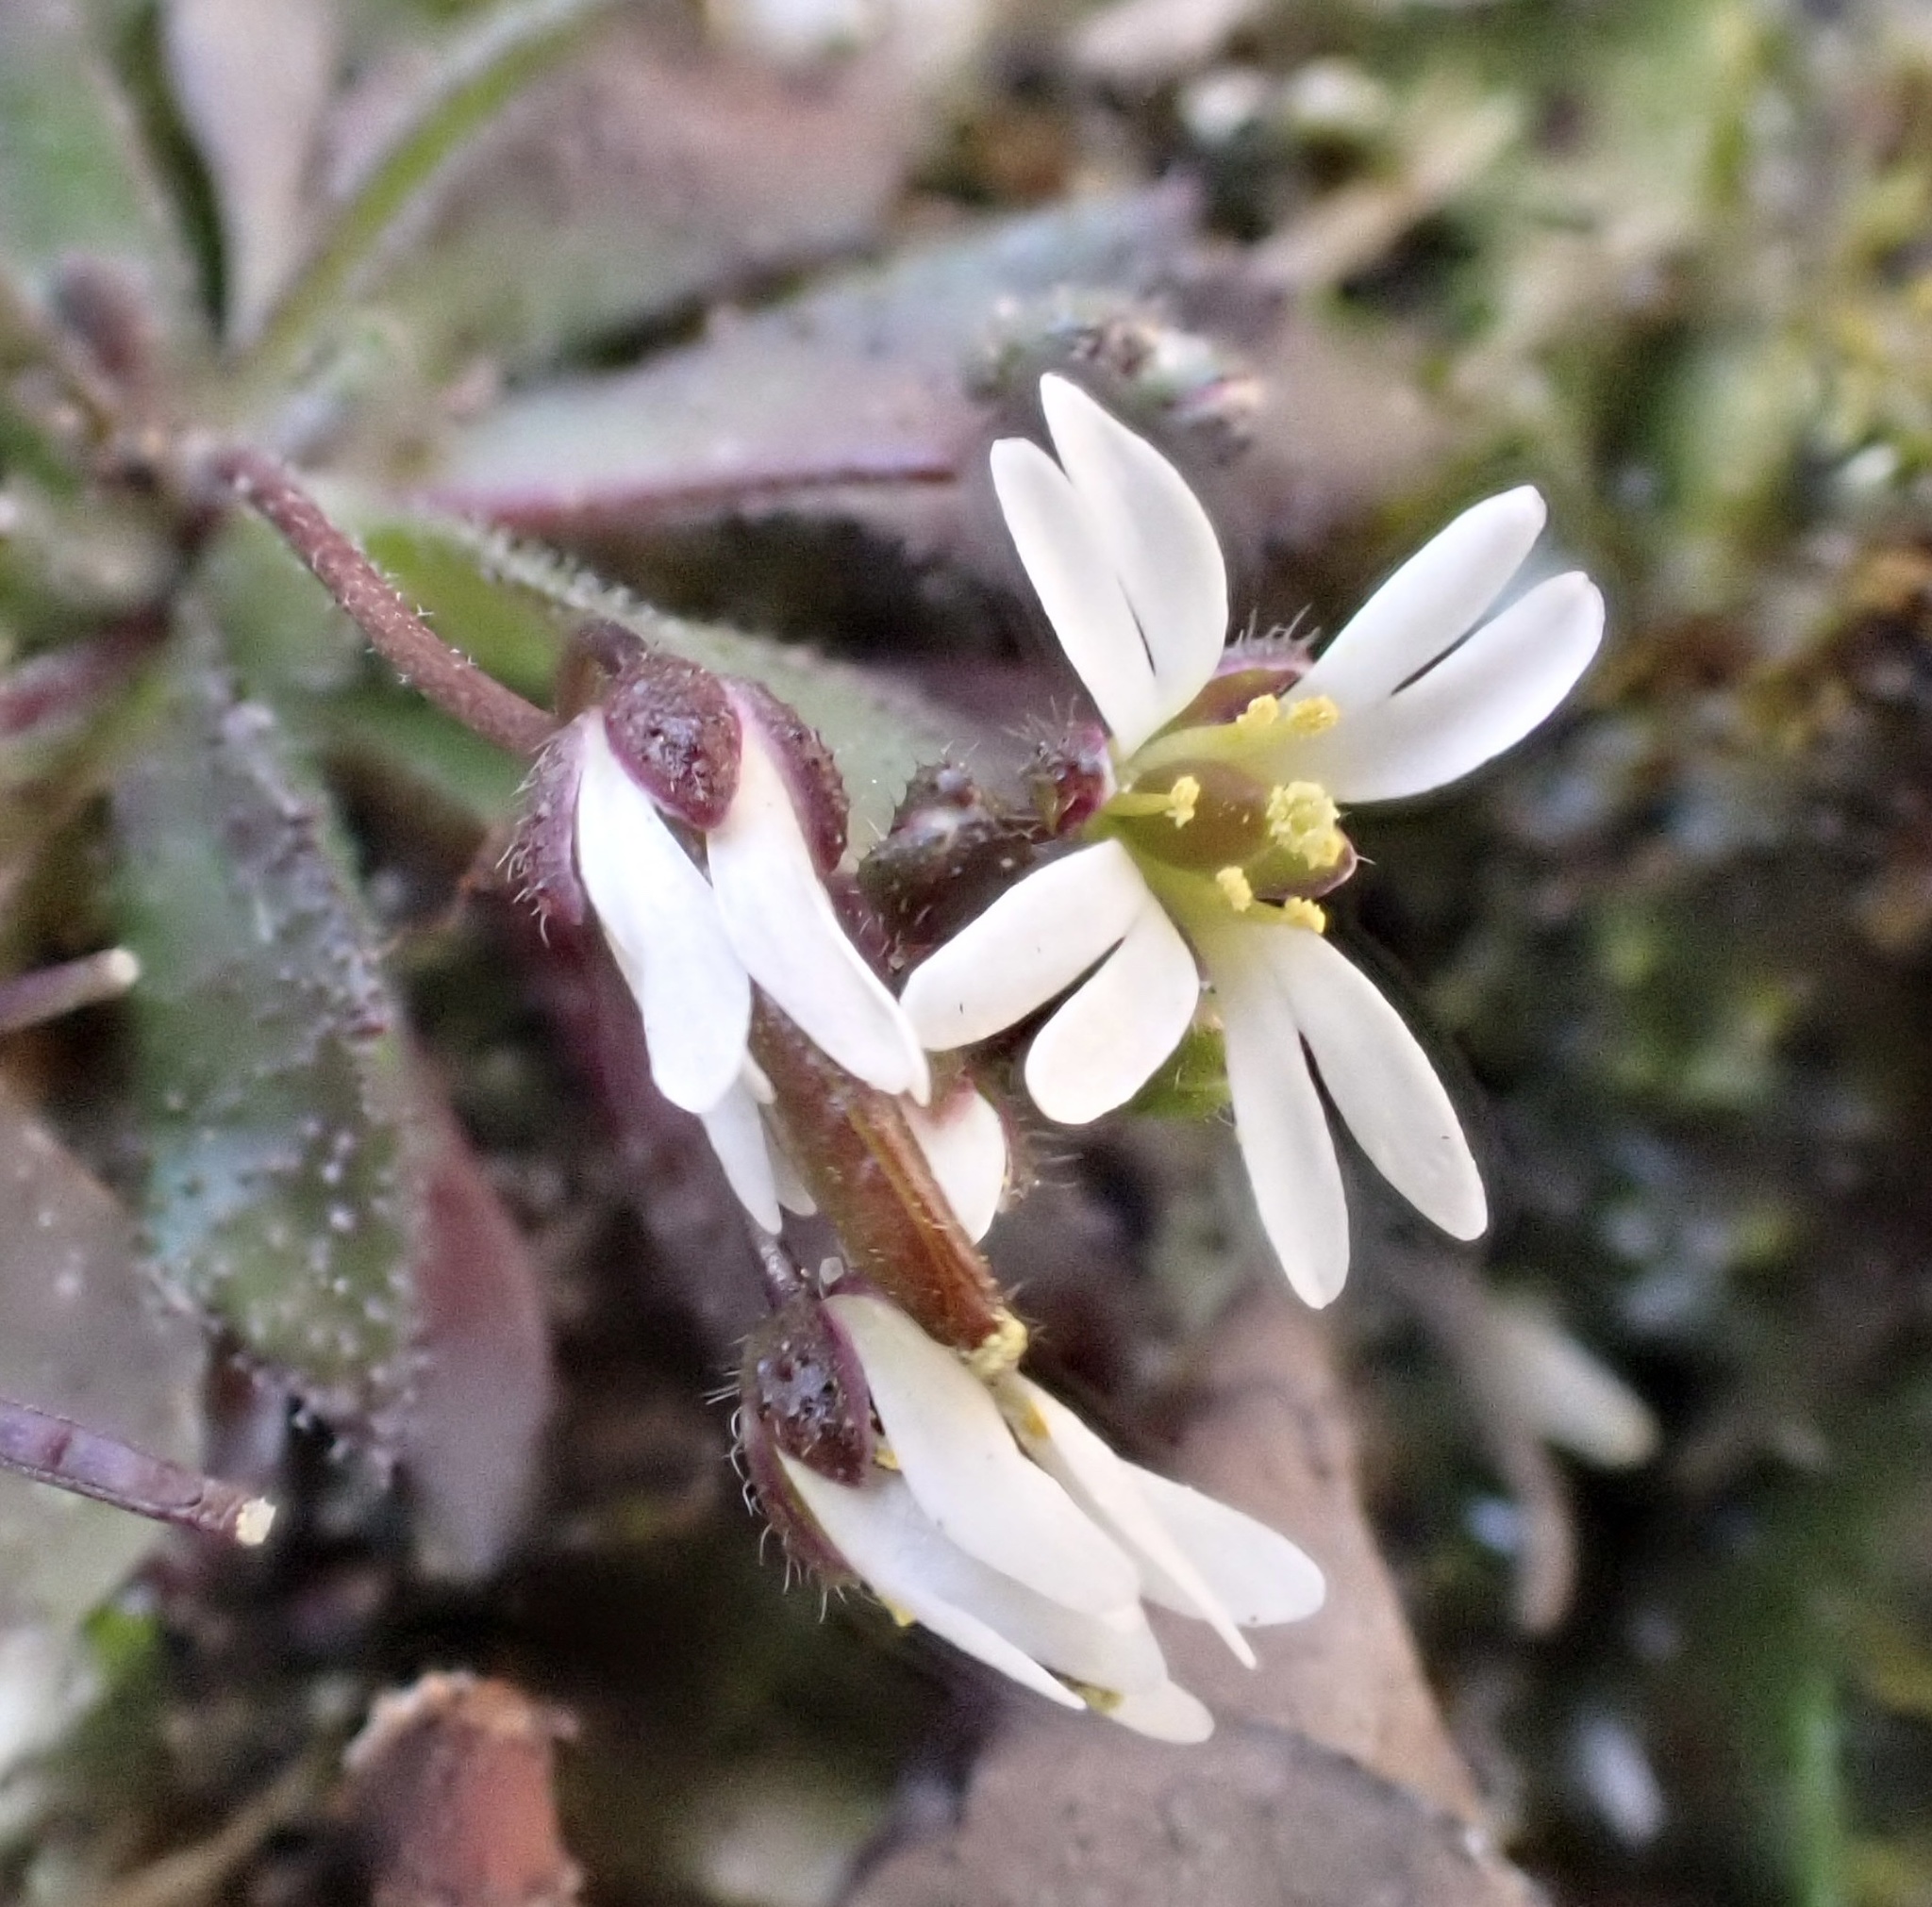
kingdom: Plantae
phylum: Tracheophyta
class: Magnoliopsida
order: Brassicales
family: Brassicaceae
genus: Draba
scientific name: Draba verna
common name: Spring draba
